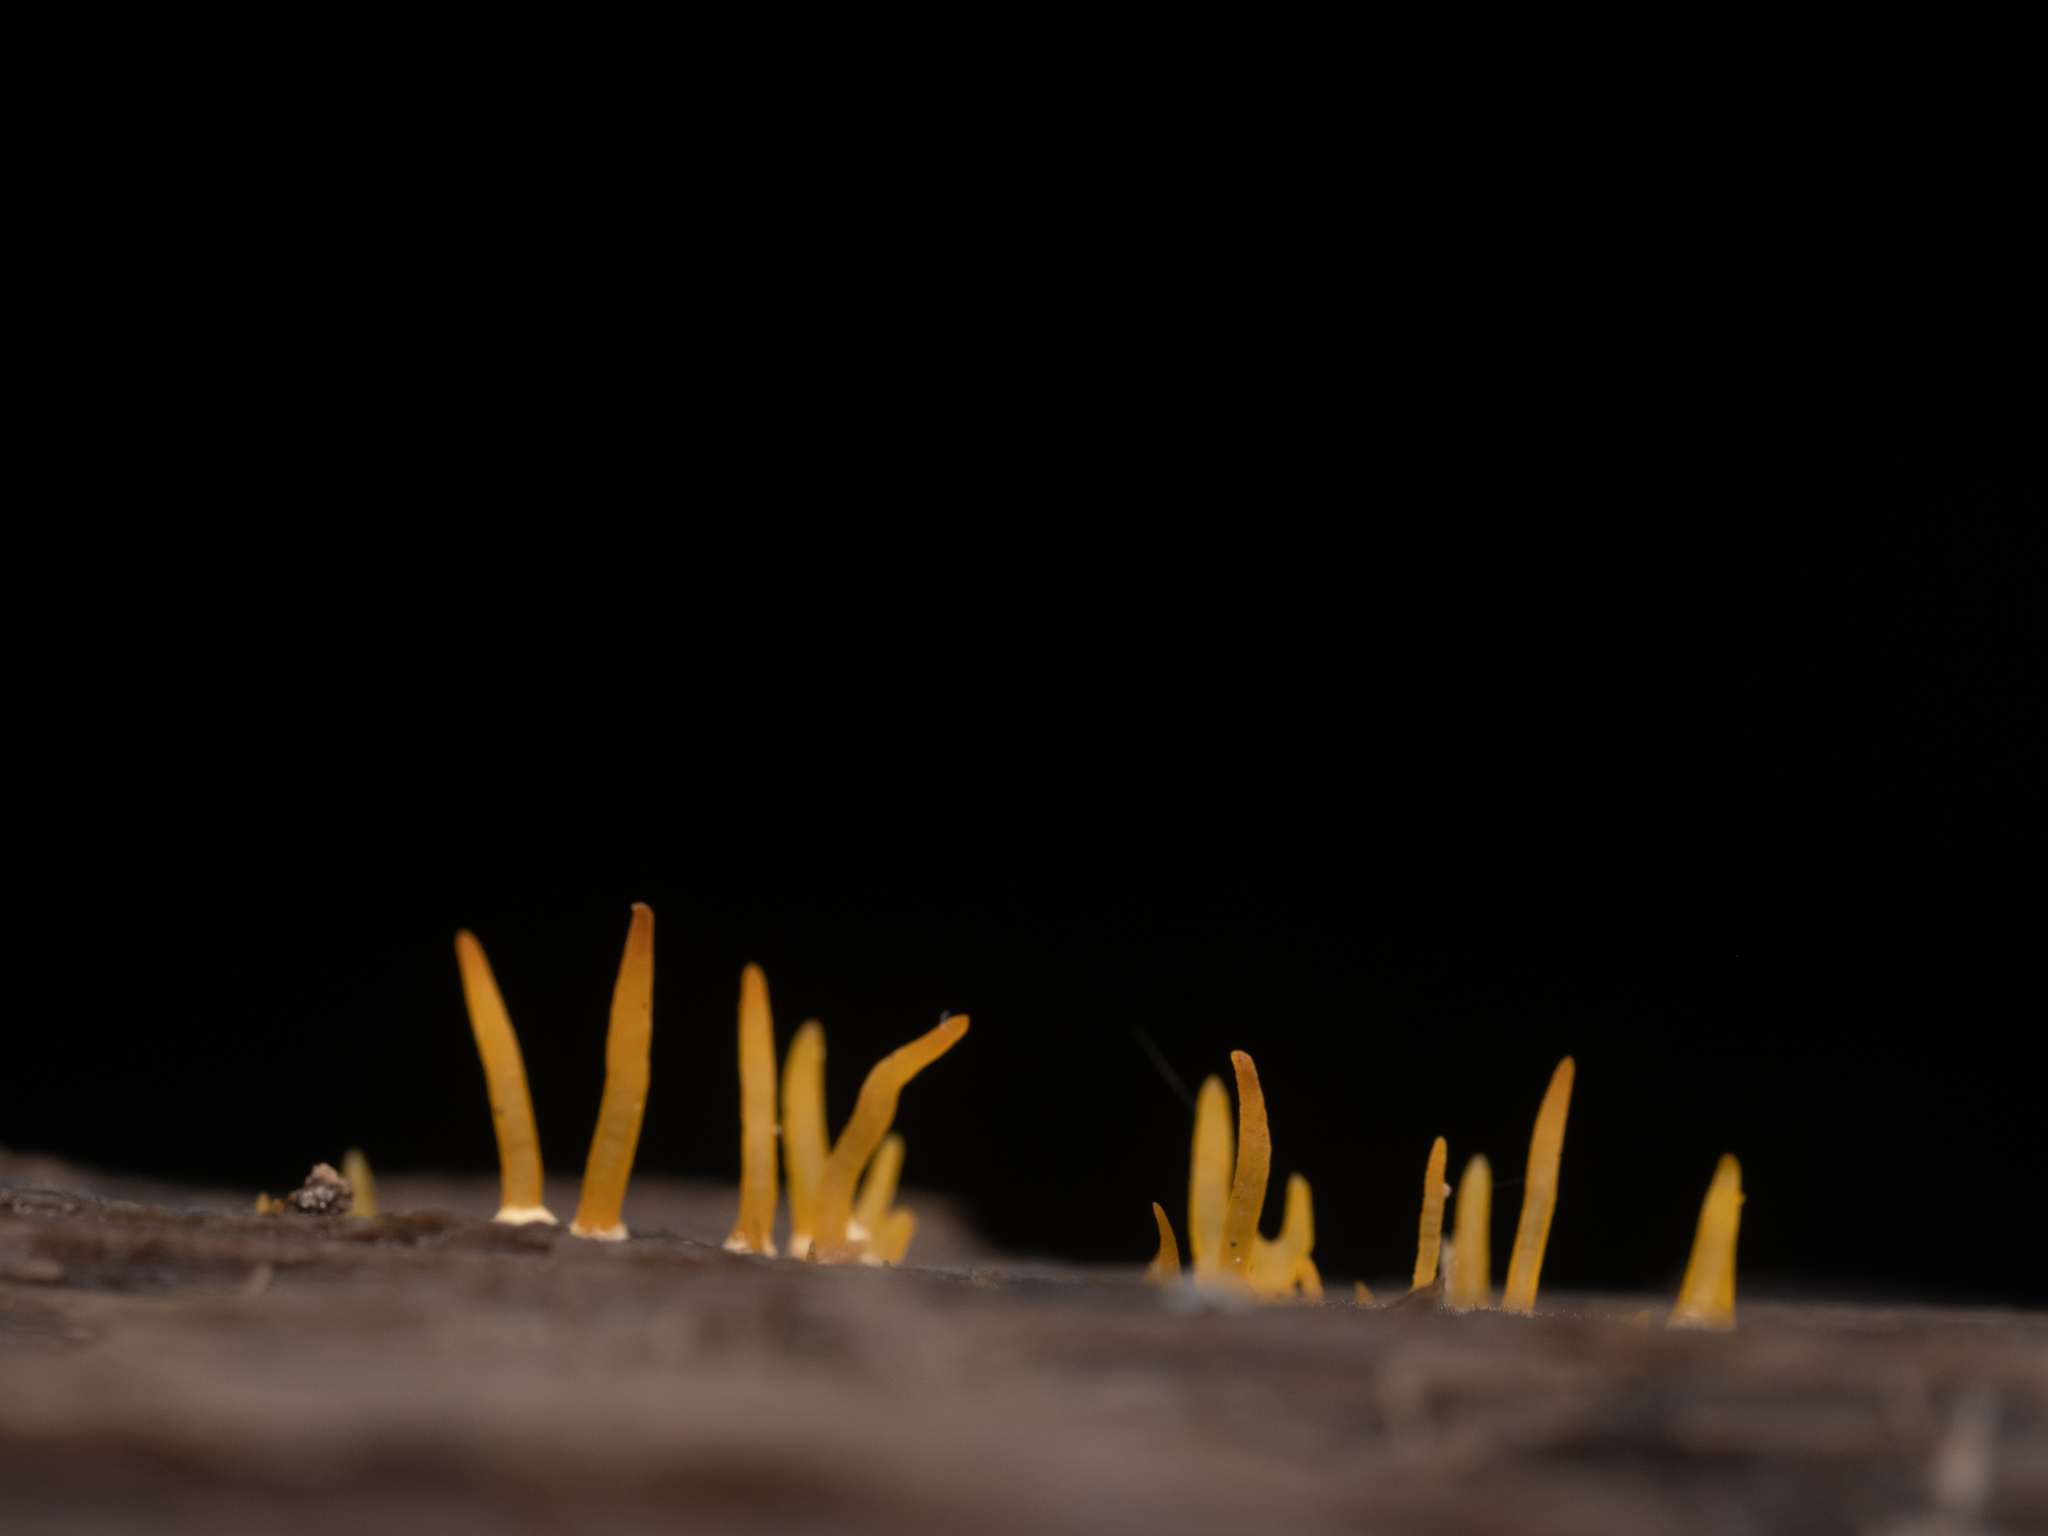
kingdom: Fungi
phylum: Basidiomycota
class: Dacrymycetes
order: Dacrymycetales
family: Dacrymycetaceae
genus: Calocera
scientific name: Calocera cornea
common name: Small stagshorn
